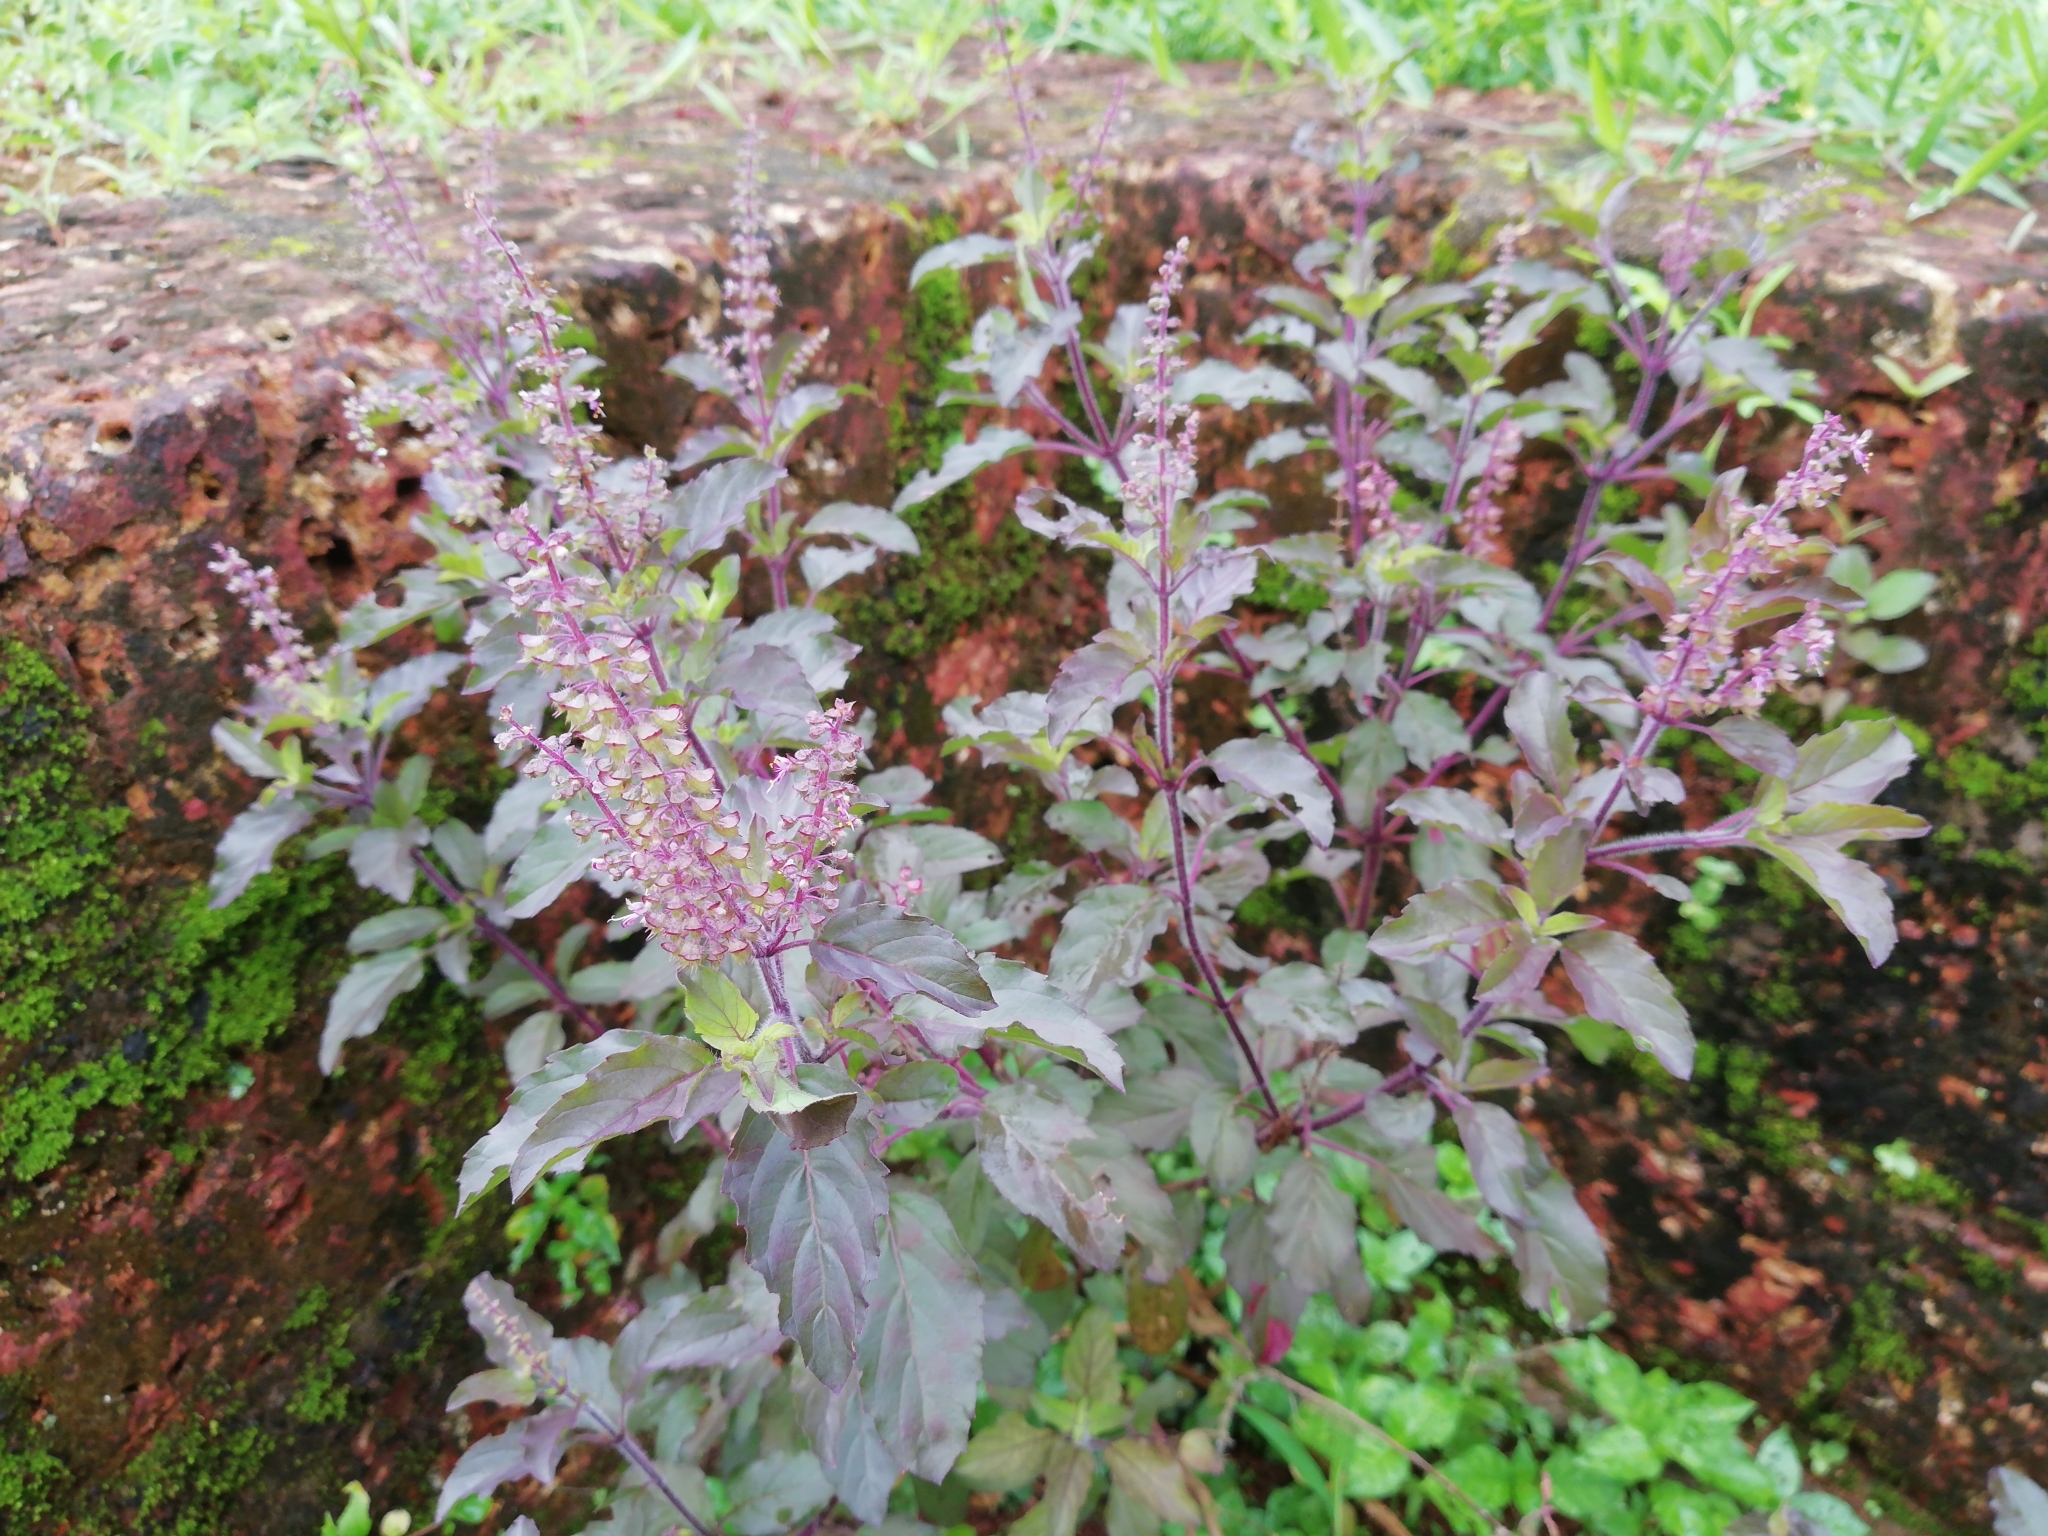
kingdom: Plantae
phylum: Tracheophyta
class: Magnoliopsida
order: Lamiales
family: Lamiaceae
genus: Ocimum
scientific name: Ocimum tenuiflorum
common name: Sacred basil
